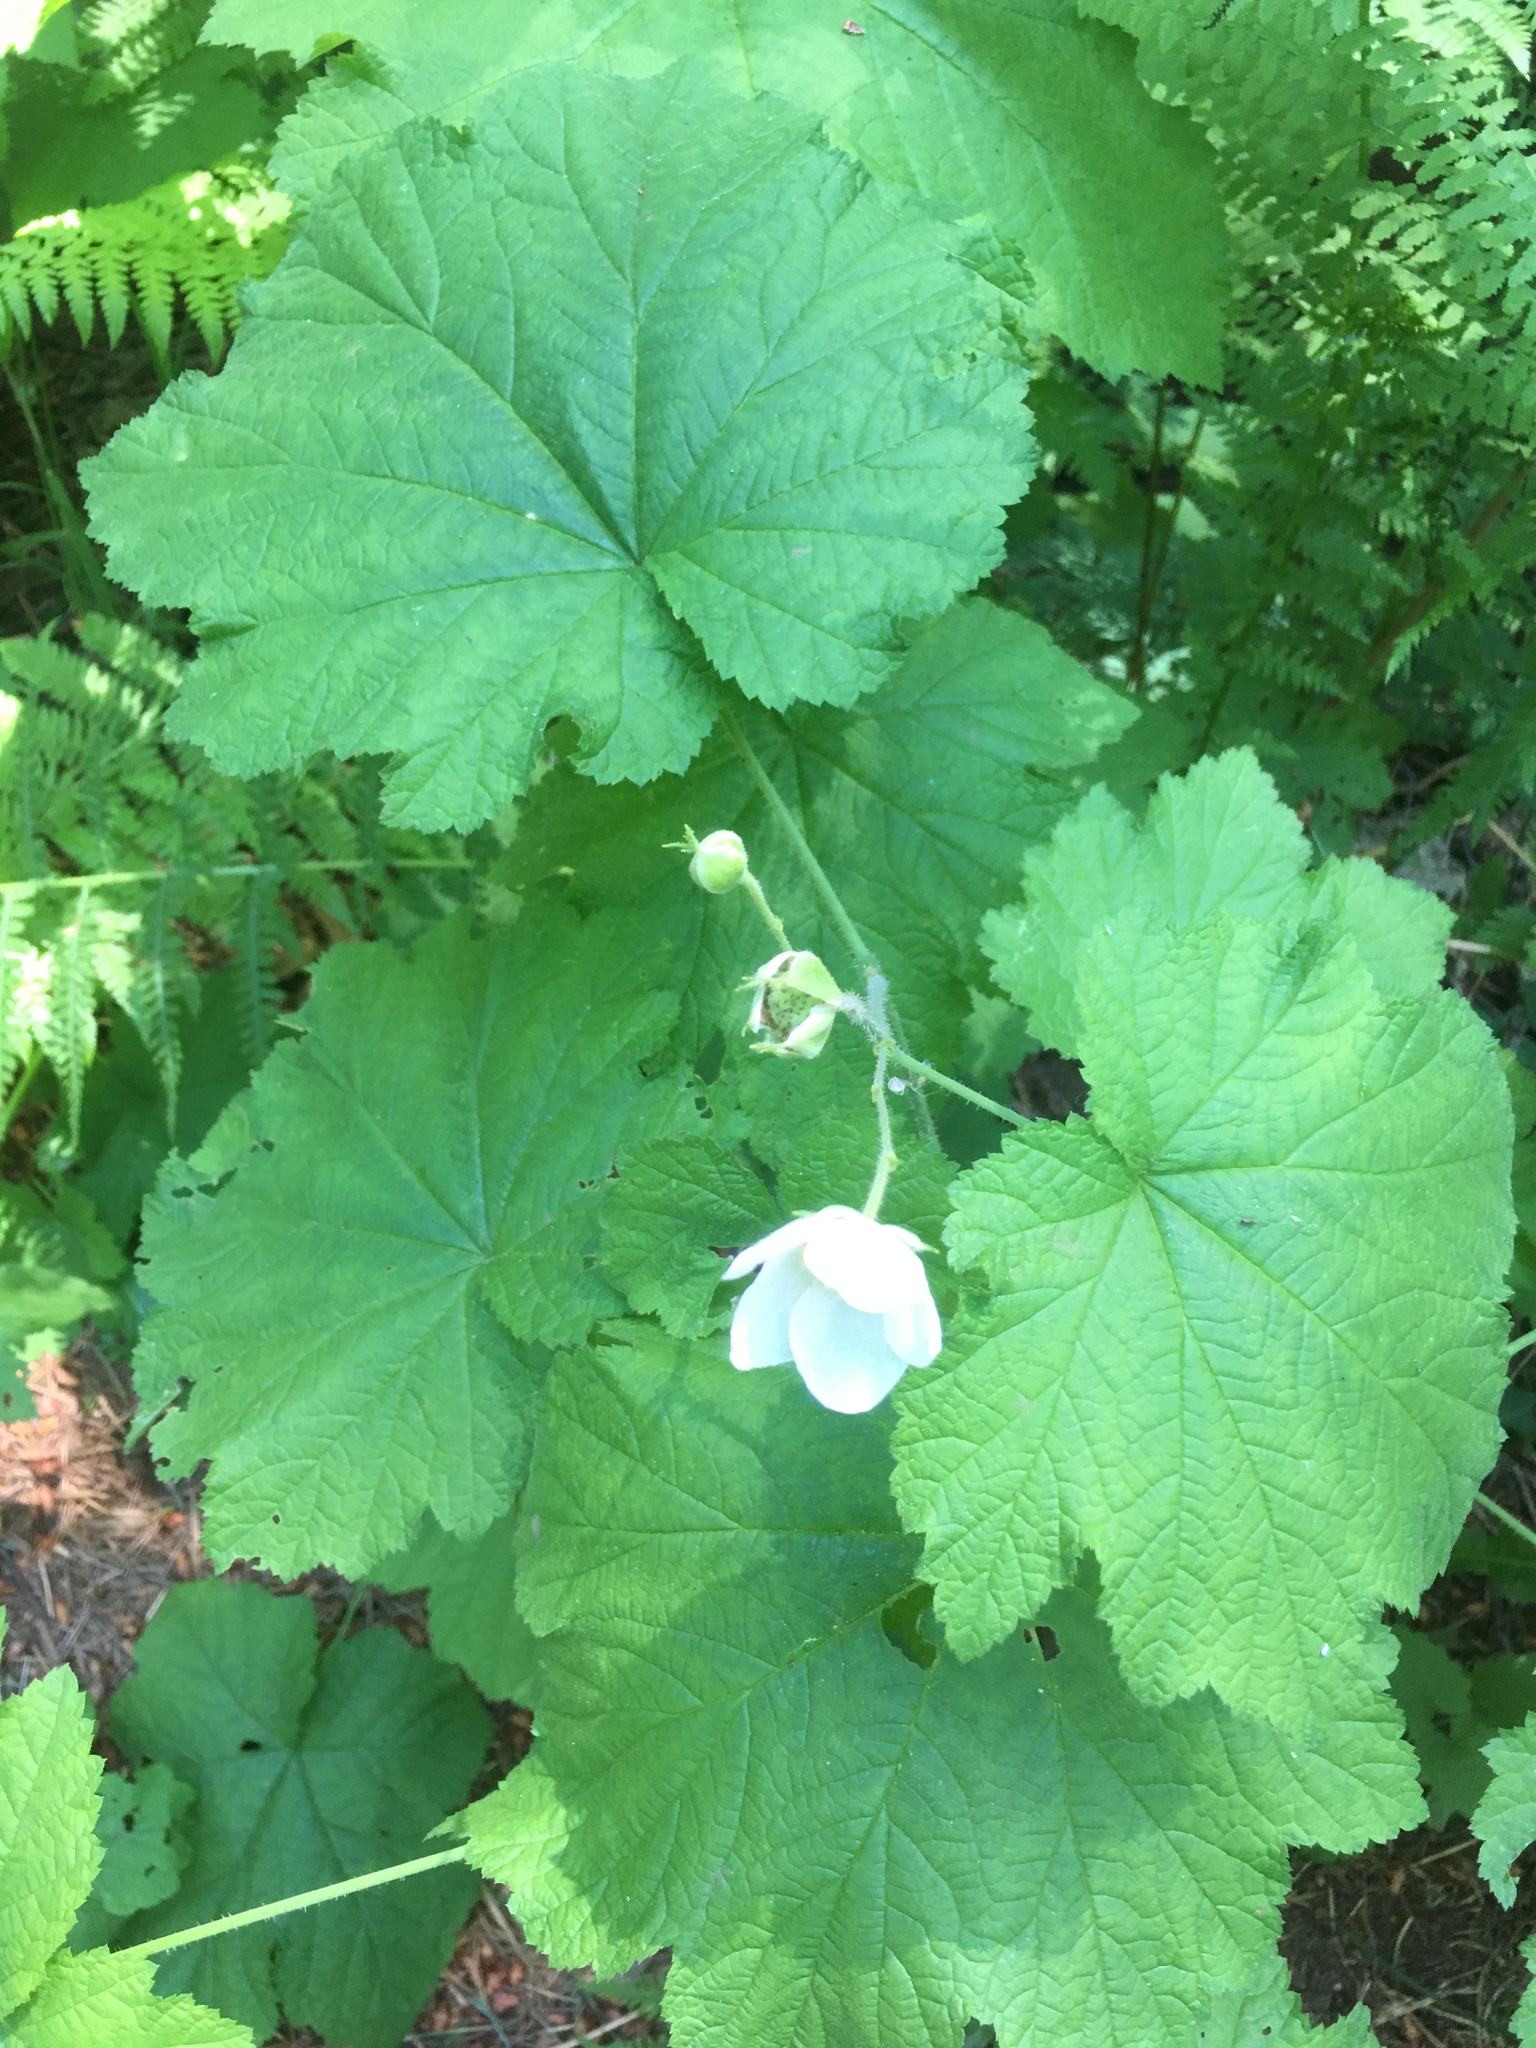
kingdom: Plantae
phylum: Tracheophyta
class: Magnoliopsida
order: Rosales
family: Rosaceae
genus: Rubus
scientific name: Rubus parviflorus
